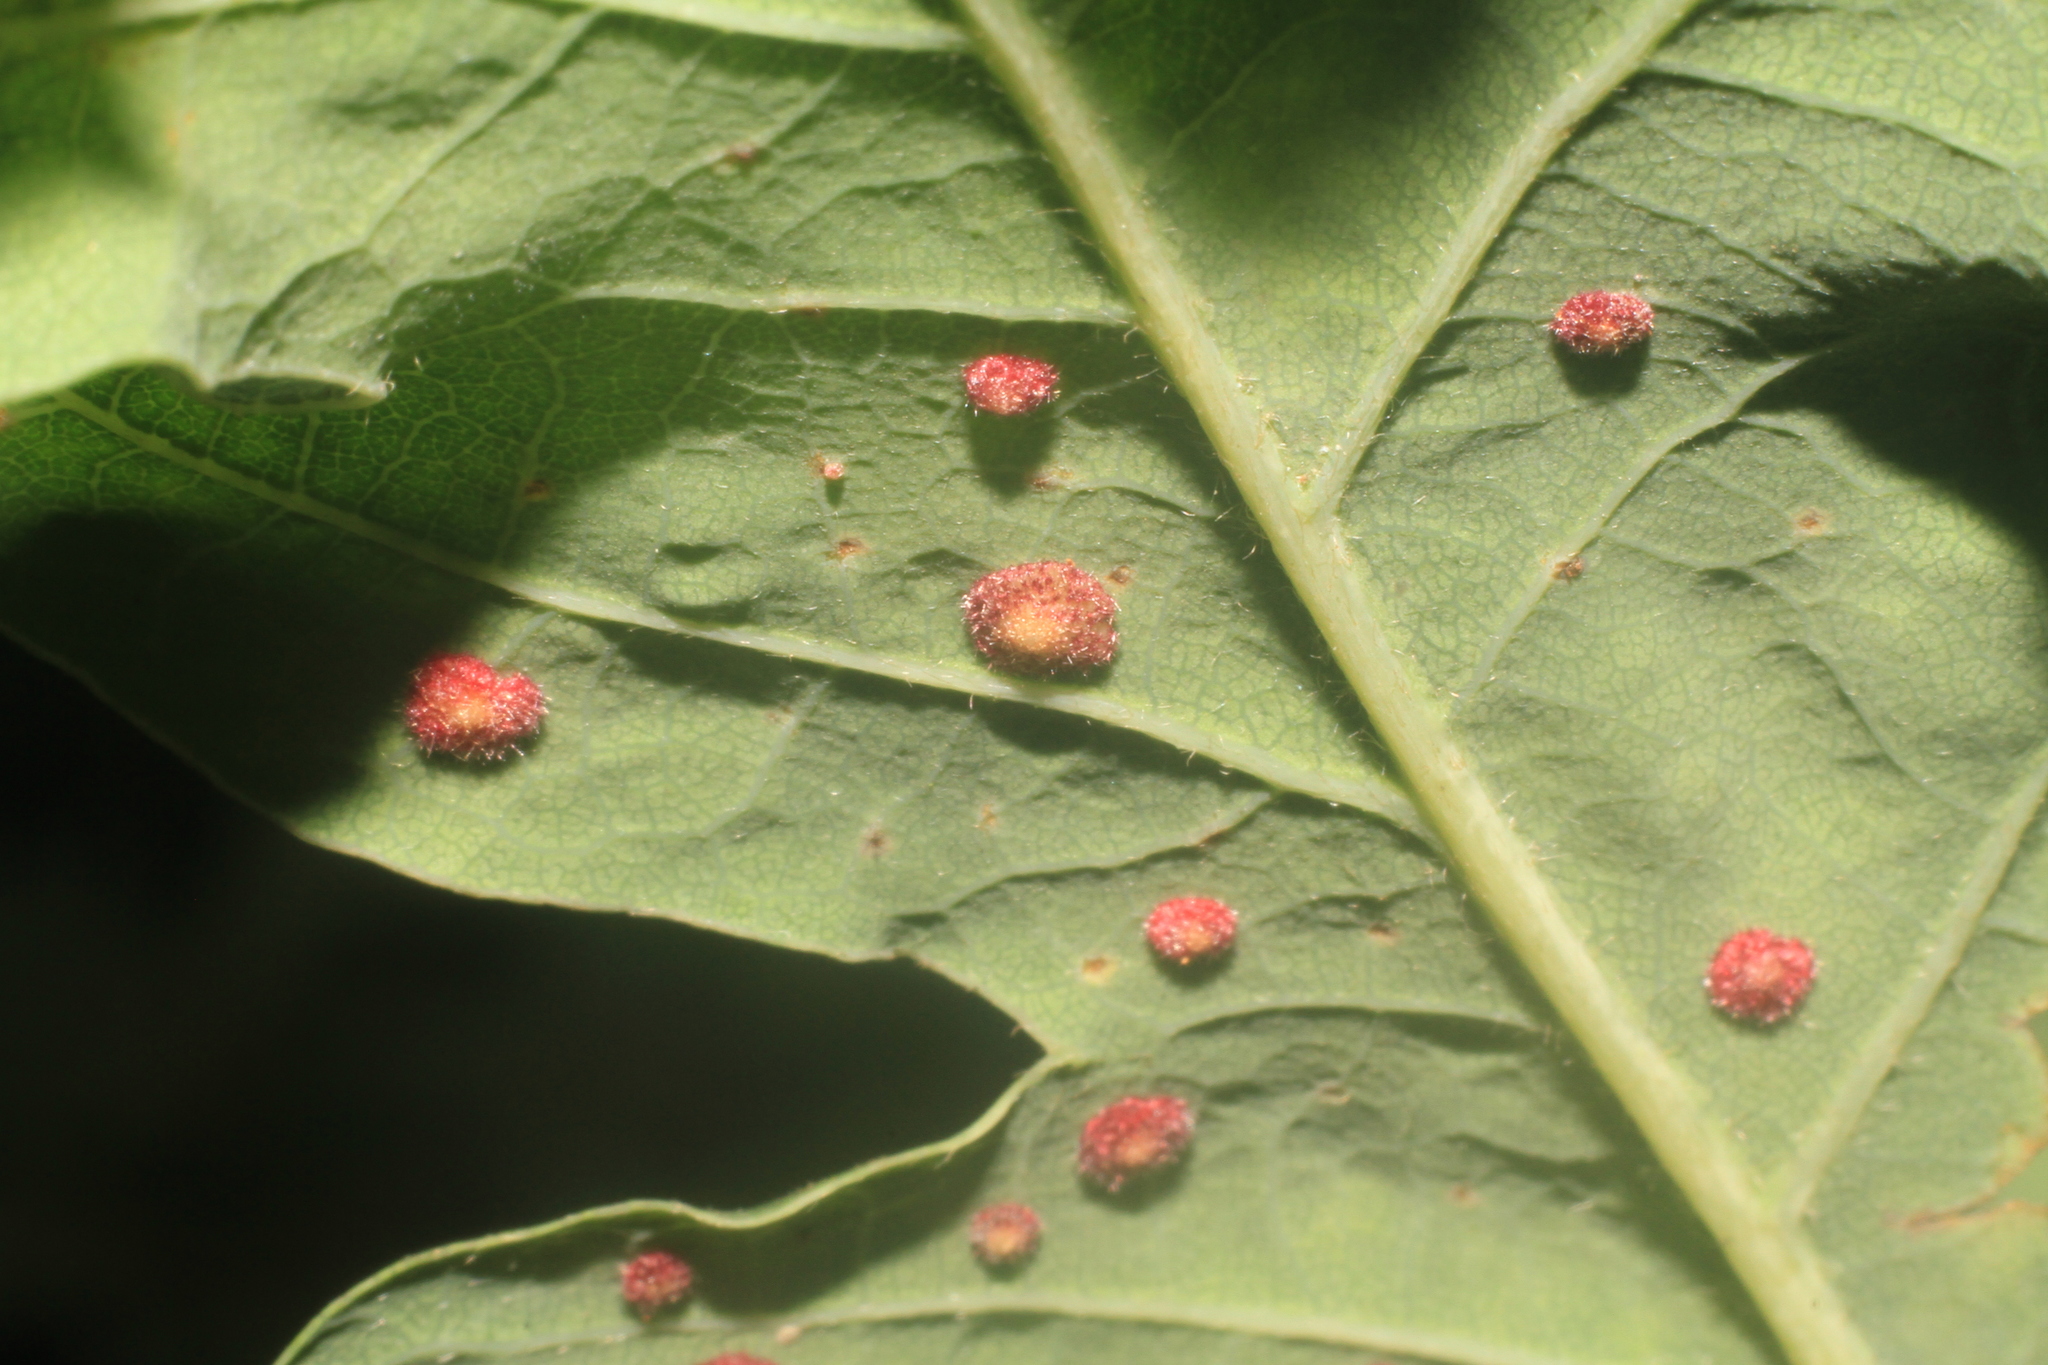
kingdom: Animalia
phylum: Arthropoda
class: Insecta
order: Hymenoptera
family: Cynipidae
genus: Neuroterus
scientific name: Neuroterus quercusbaccarum
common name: Common spangle gall
